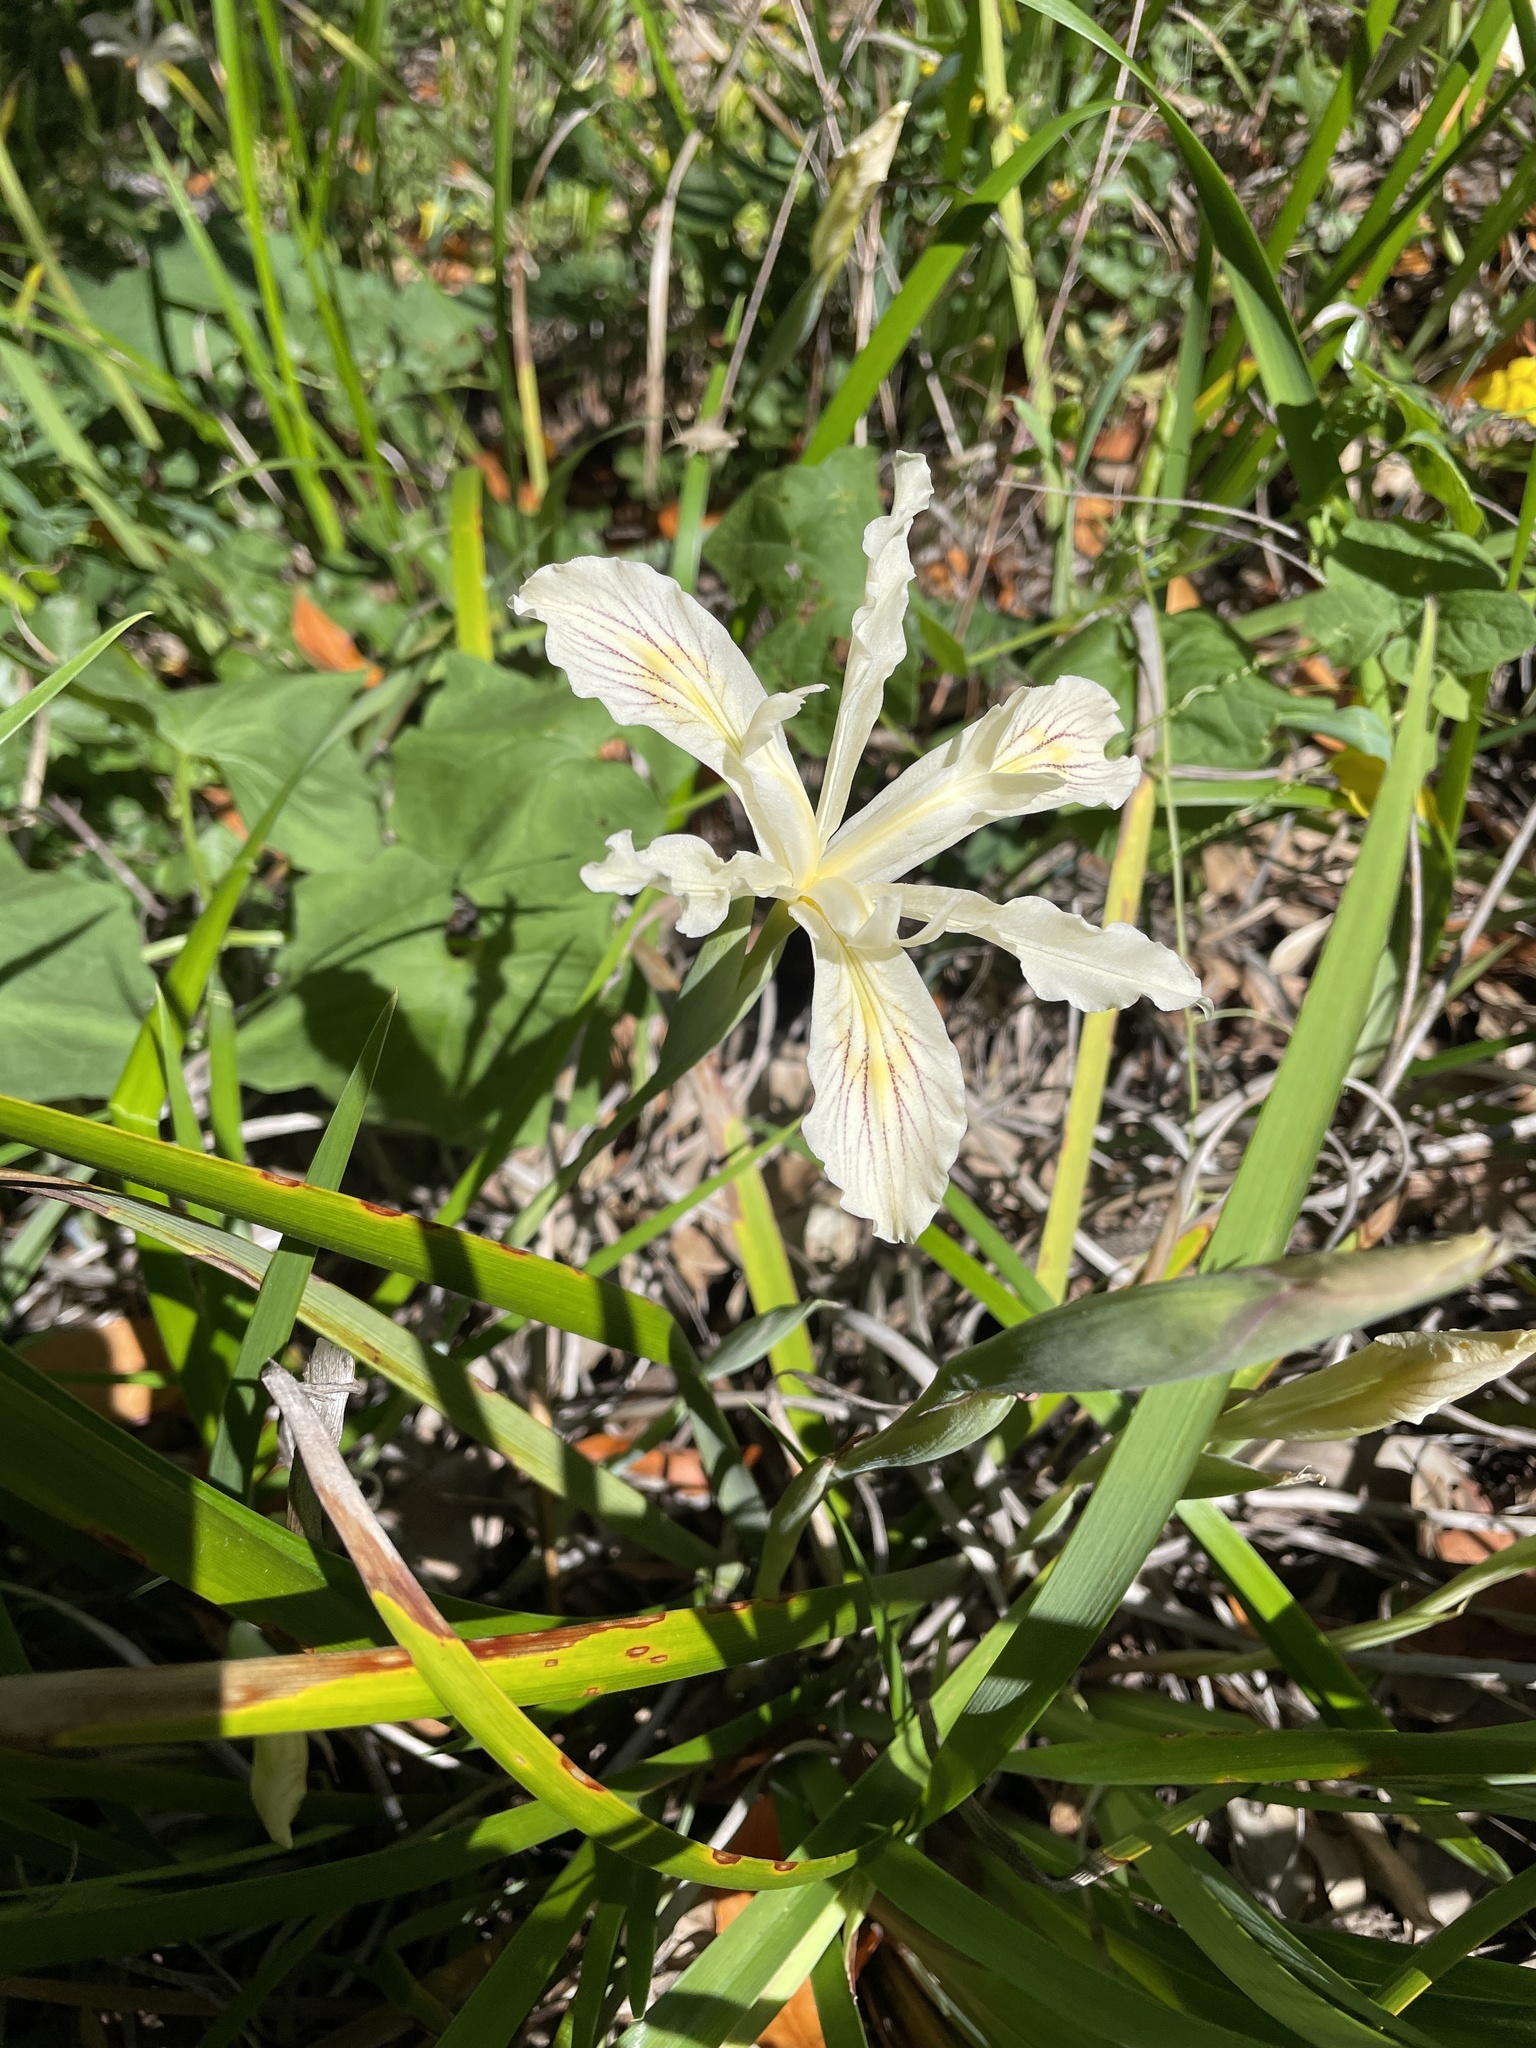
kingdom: Plantae
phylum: Tracheophyta
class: Liliopsida
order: Asparagales
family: Iridaceae
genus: Iris
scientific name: Iris purdyi
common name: Purdy's iris
